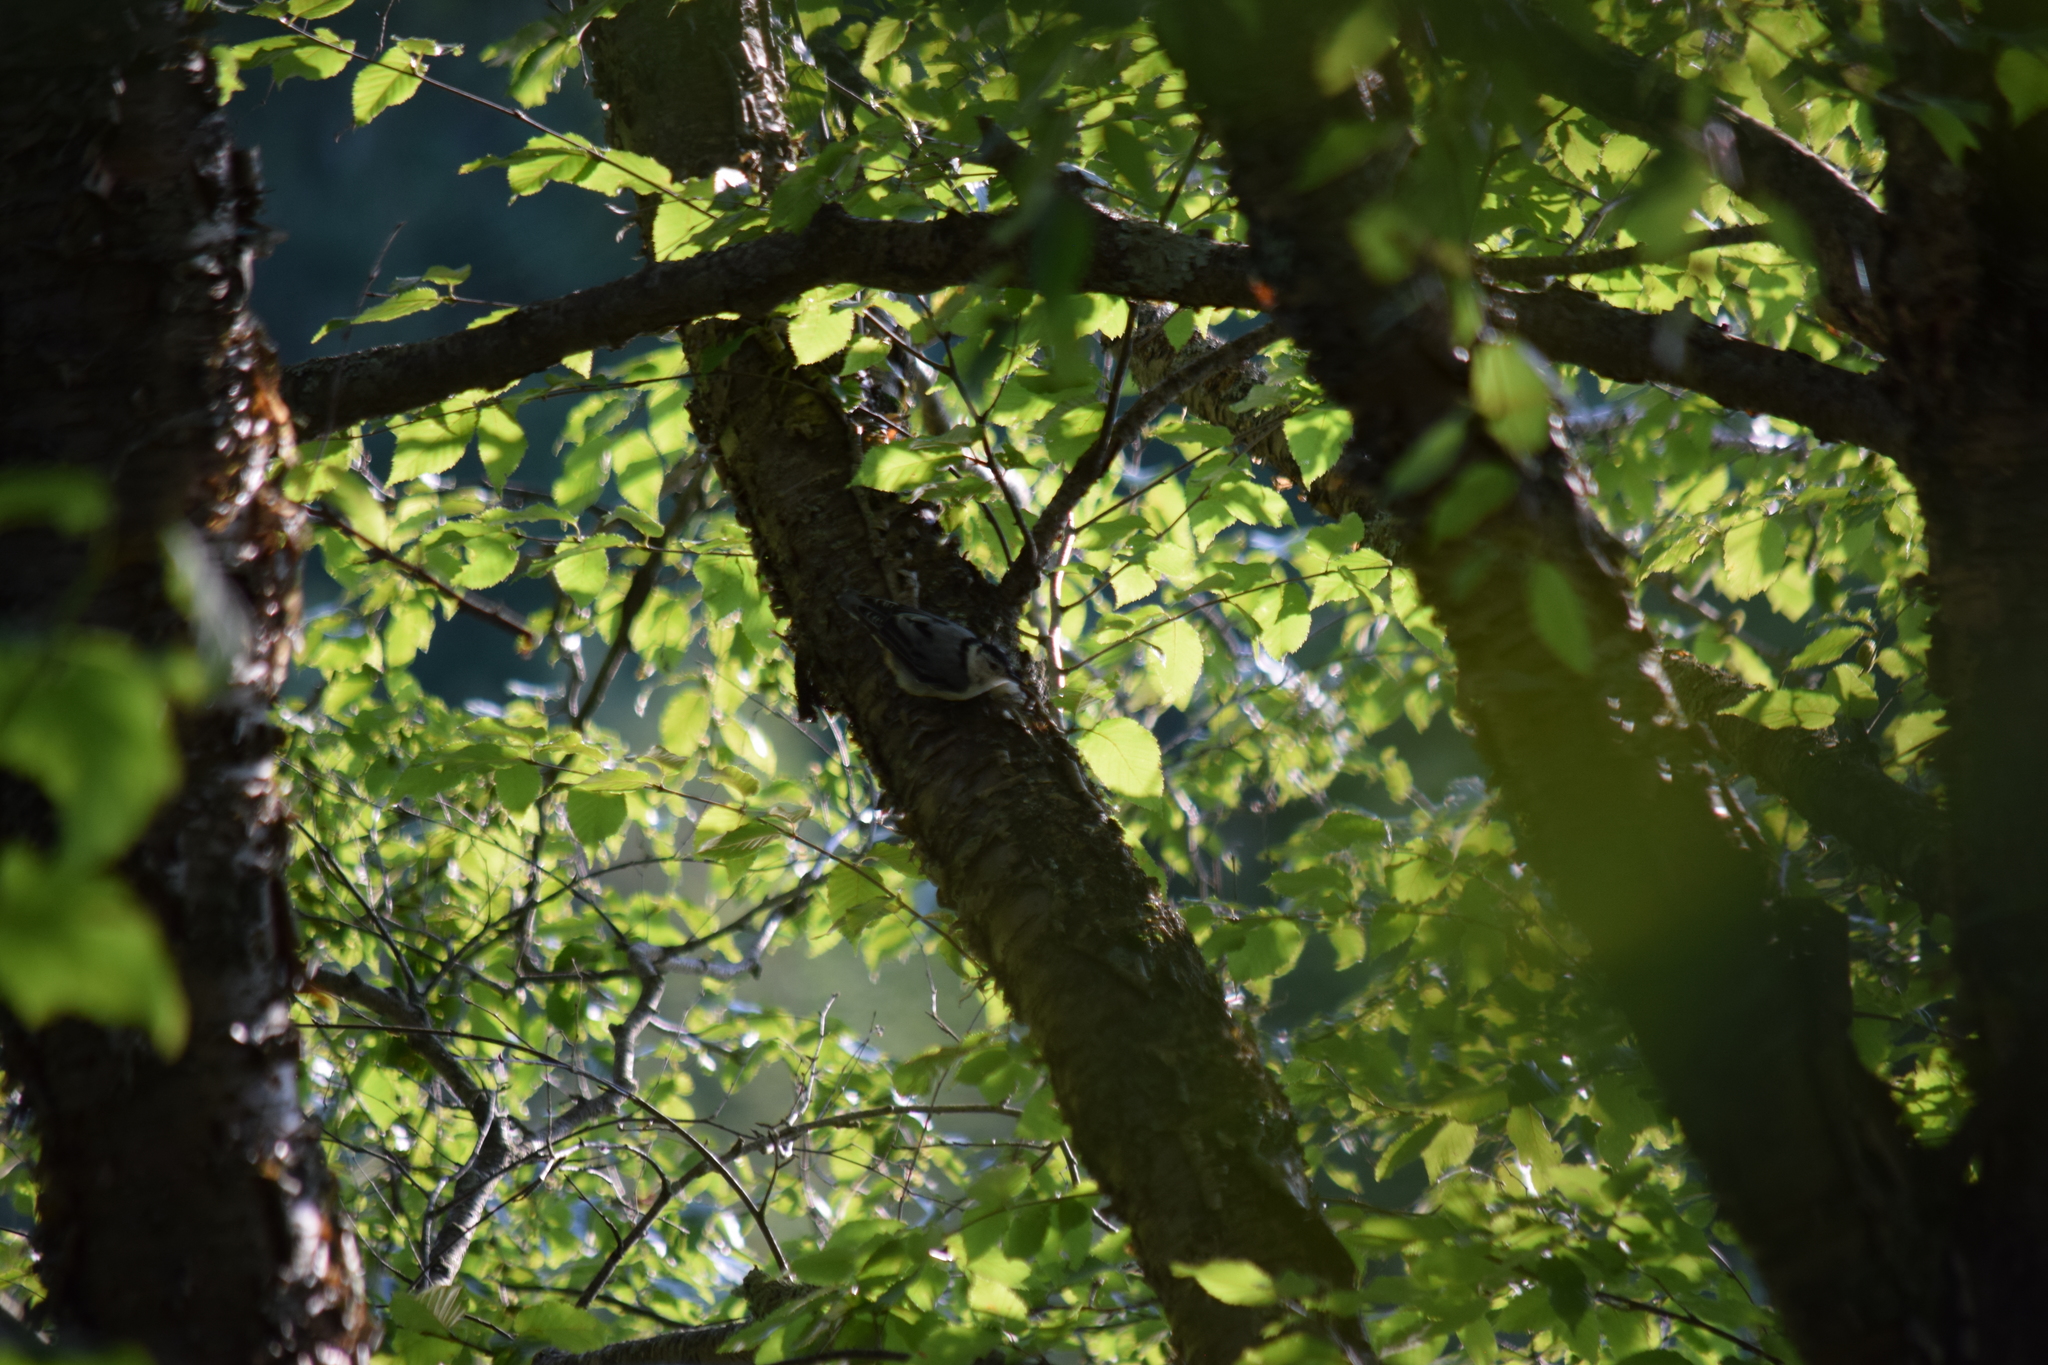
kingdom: Animalia
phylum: Chordata
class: Aves
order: Passeriformes
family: Sittidae
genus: Sitta
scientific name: Sitta carolinensis
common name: White-breasted nuthatch
